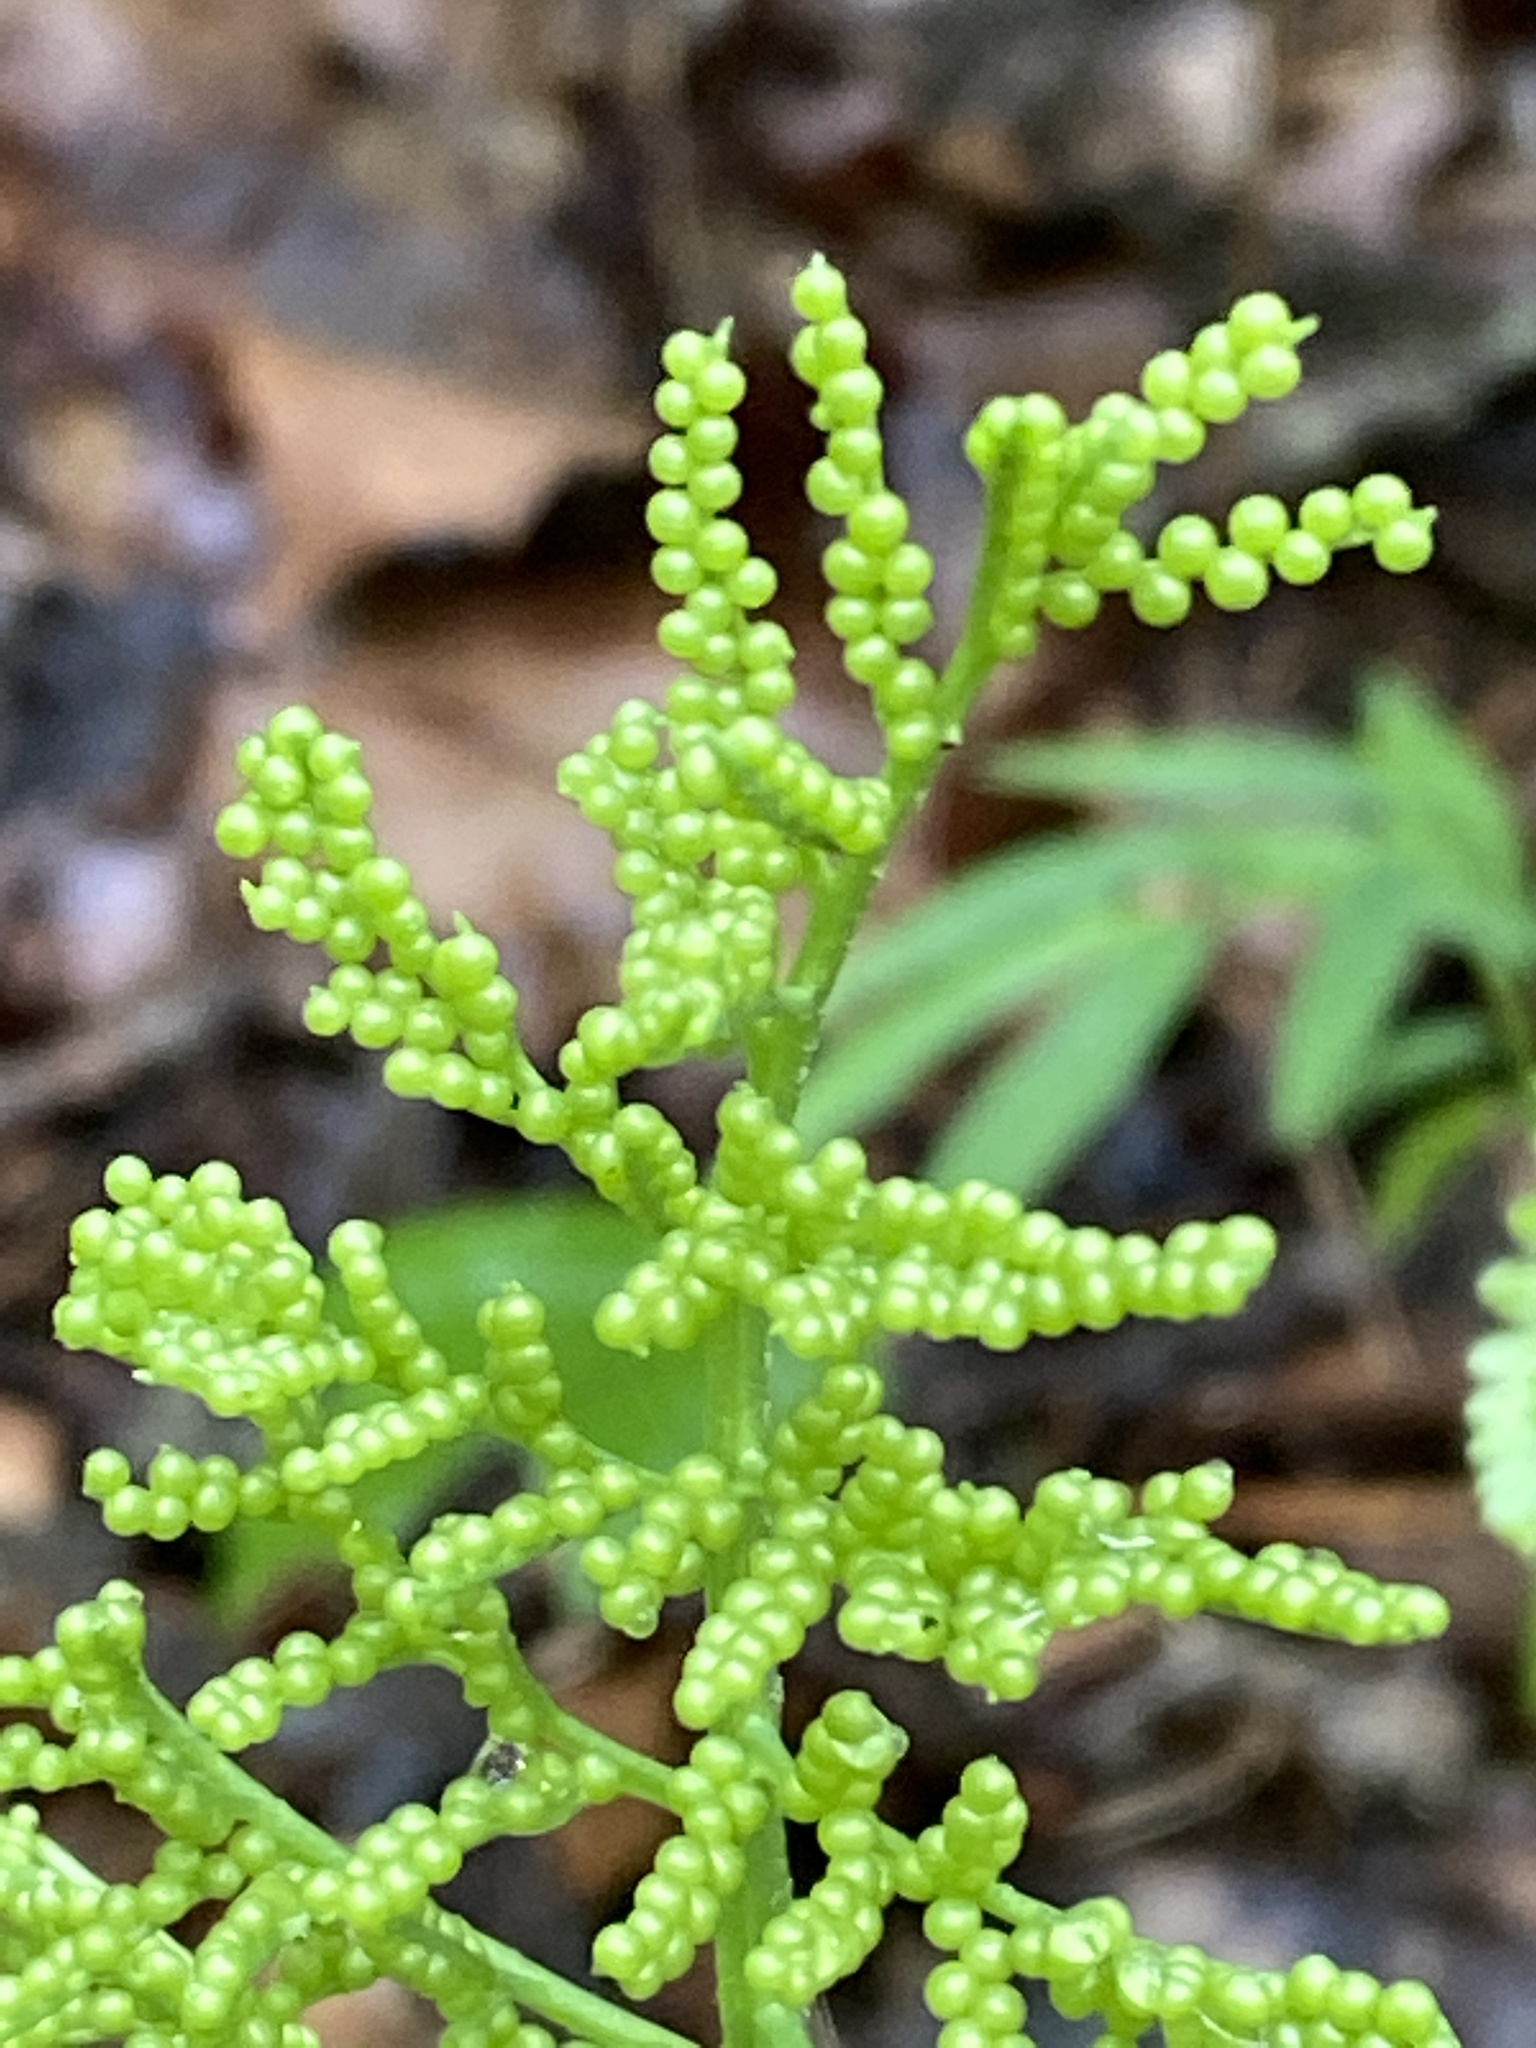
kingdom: Plantae
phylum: Tracheophyta
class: Polypodiopsida
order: Ophioglossales
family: Ophioglossaceae
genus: Sceptridium
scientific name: Sceptridium biternatum
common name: Sparse-lobed grapefern
